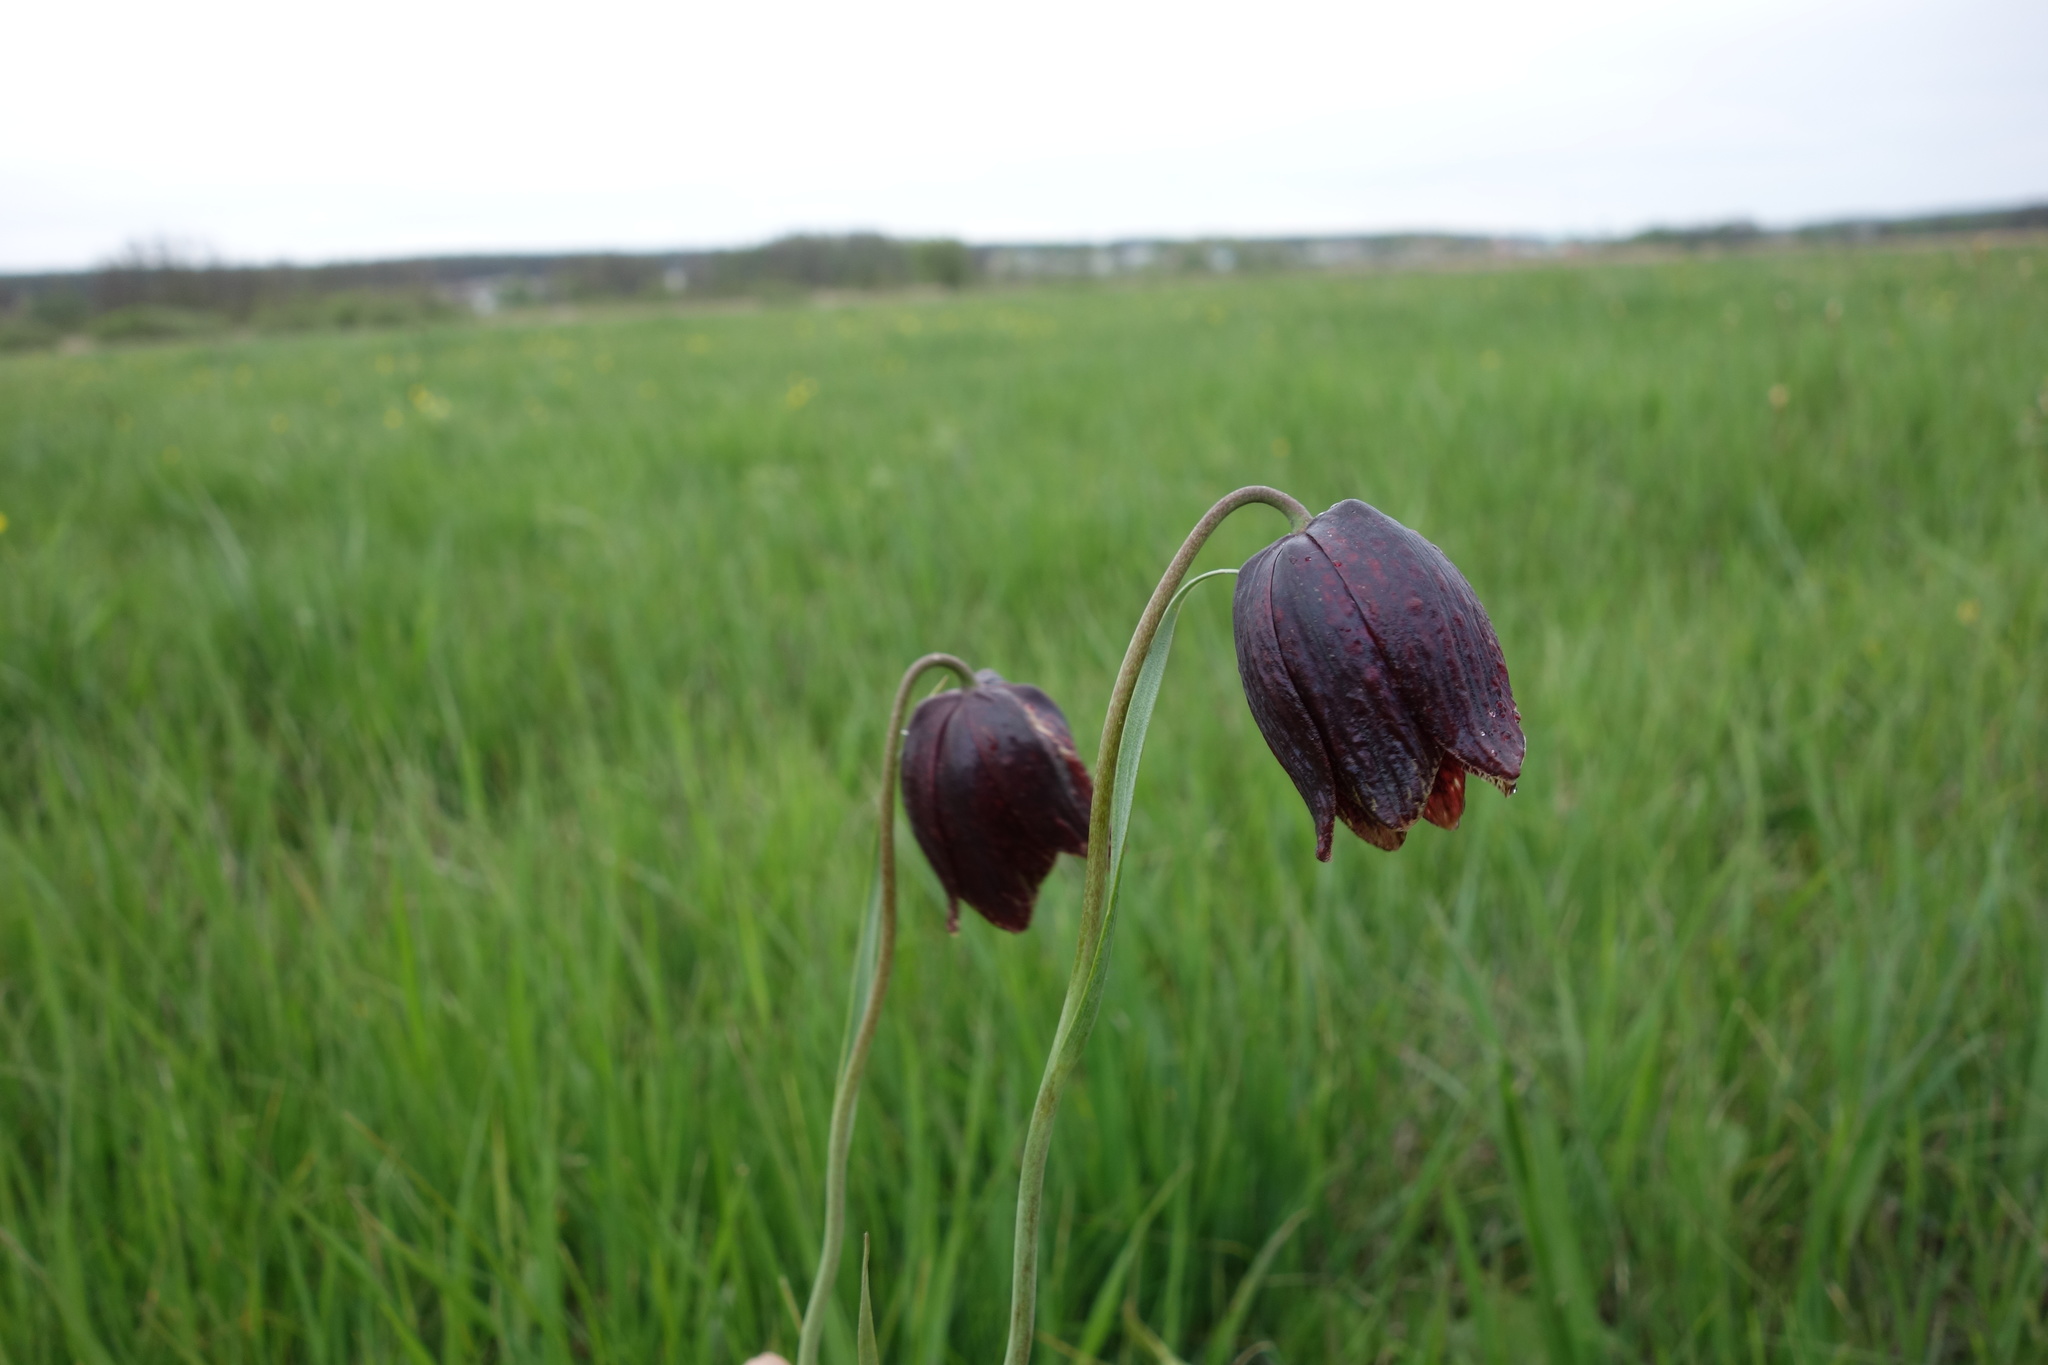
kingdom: Plantae
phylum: Tracheophyta
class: Liliopsida
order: Liliales
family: Liliaceae
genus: Fritillaria
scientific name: Fritillaria meleagroides
